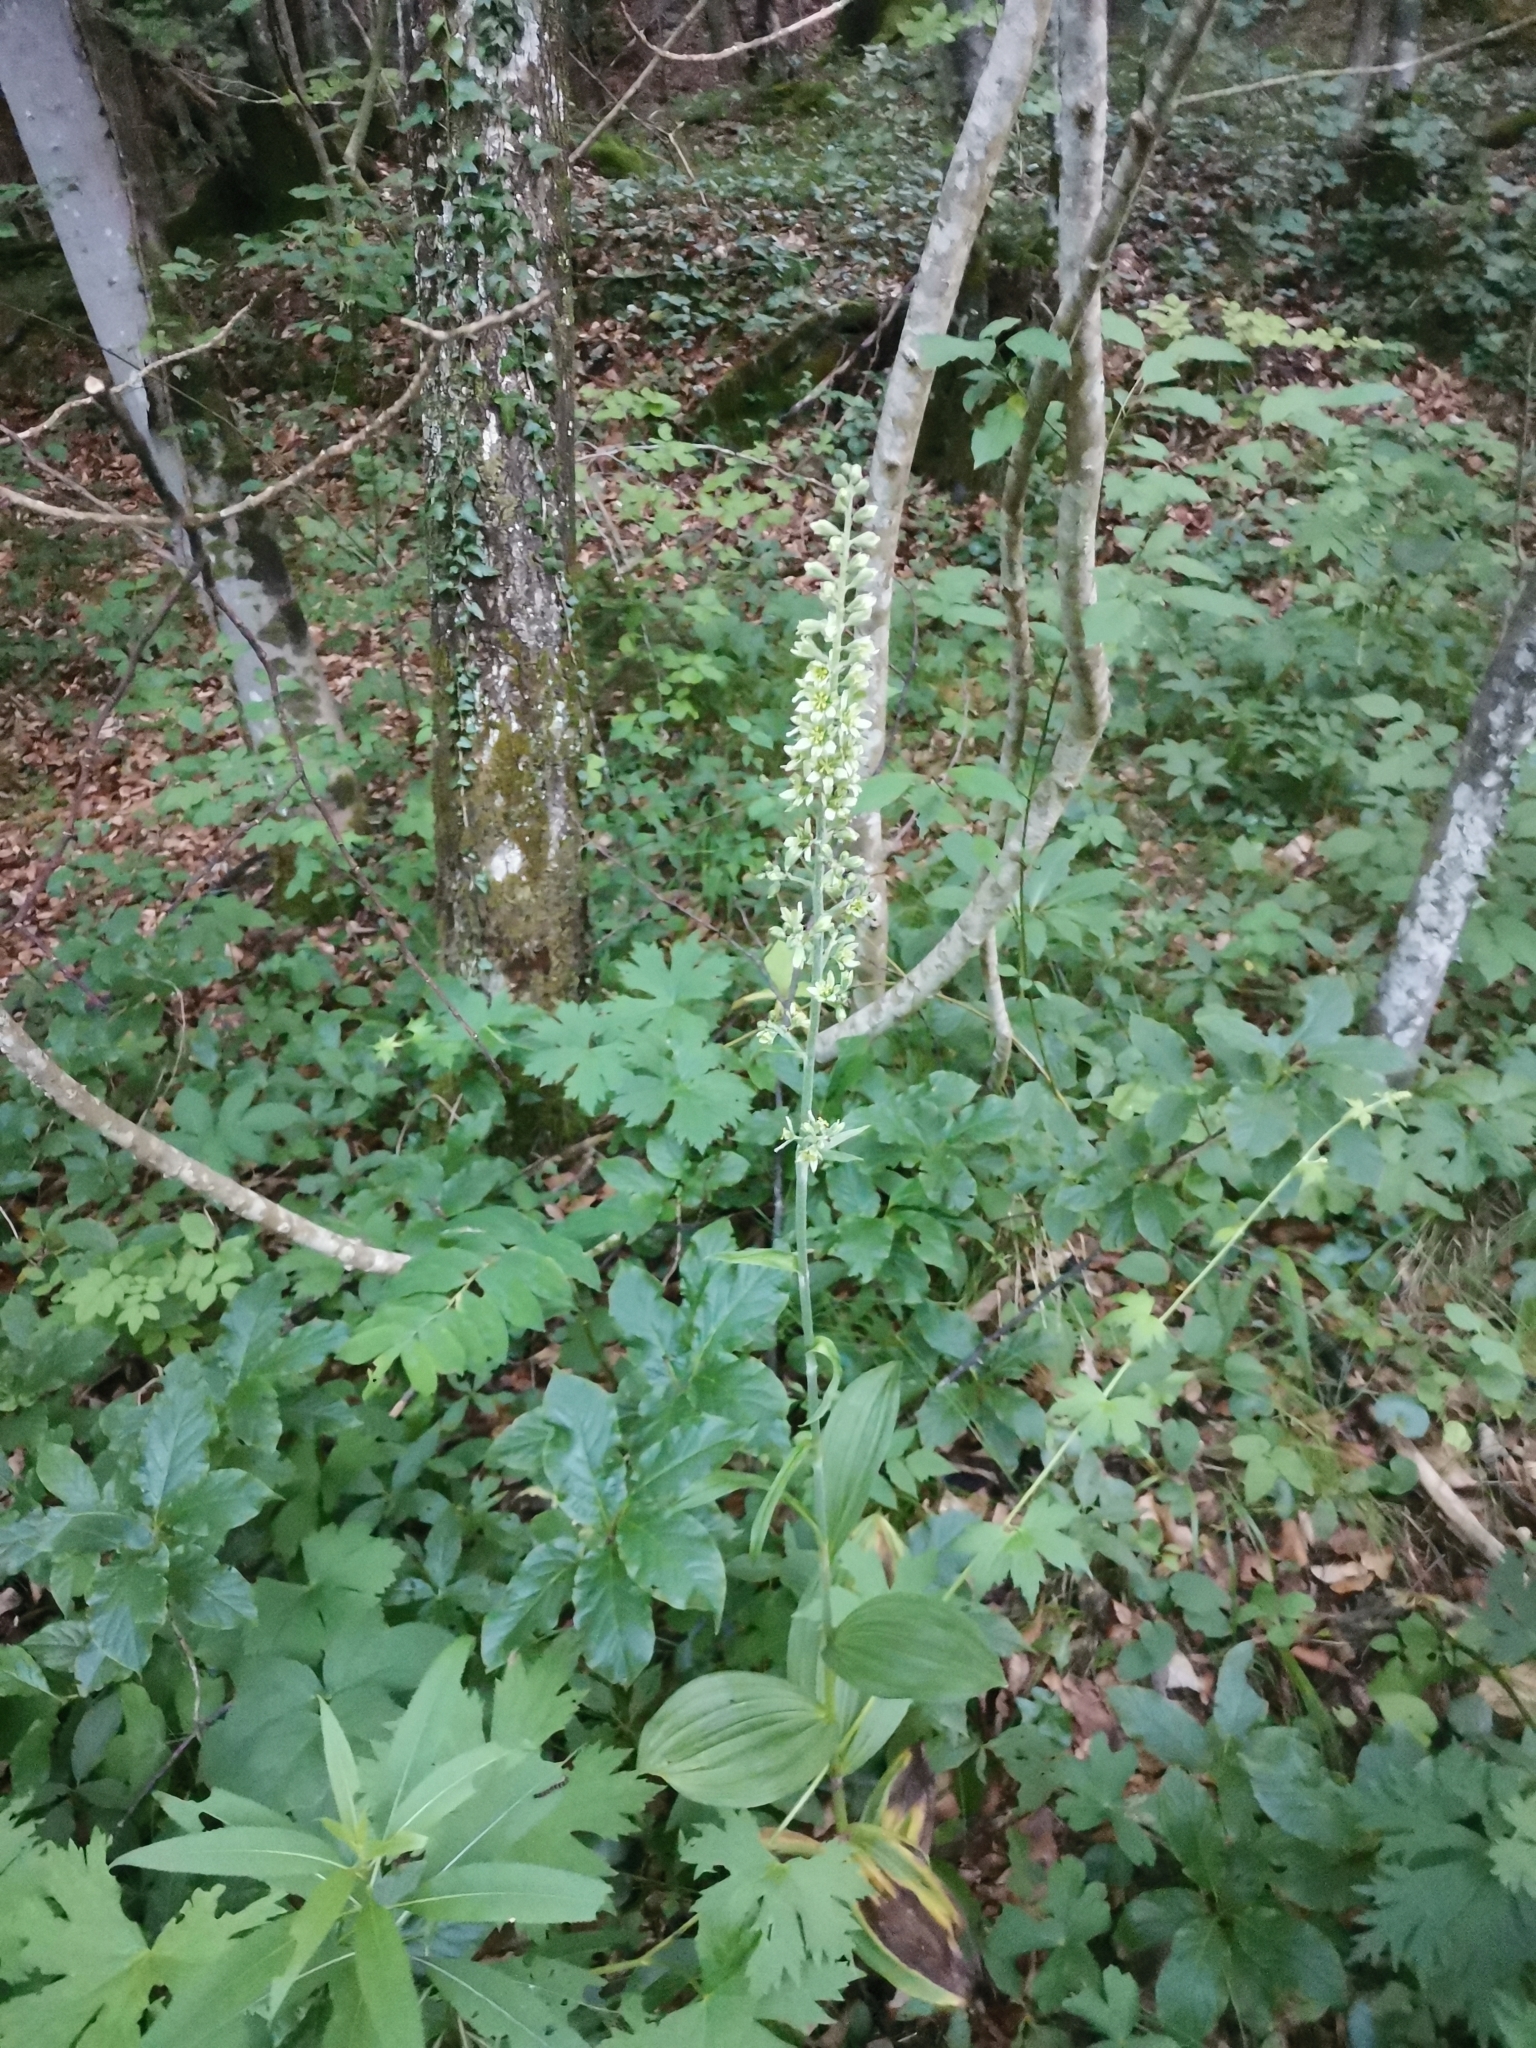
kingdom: Plantae
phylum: Tracheophyta
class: Liliopsida
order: Liliales
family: Melanthiaceae
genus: Veratrum
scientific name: Veratrum album
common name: White veratrum
